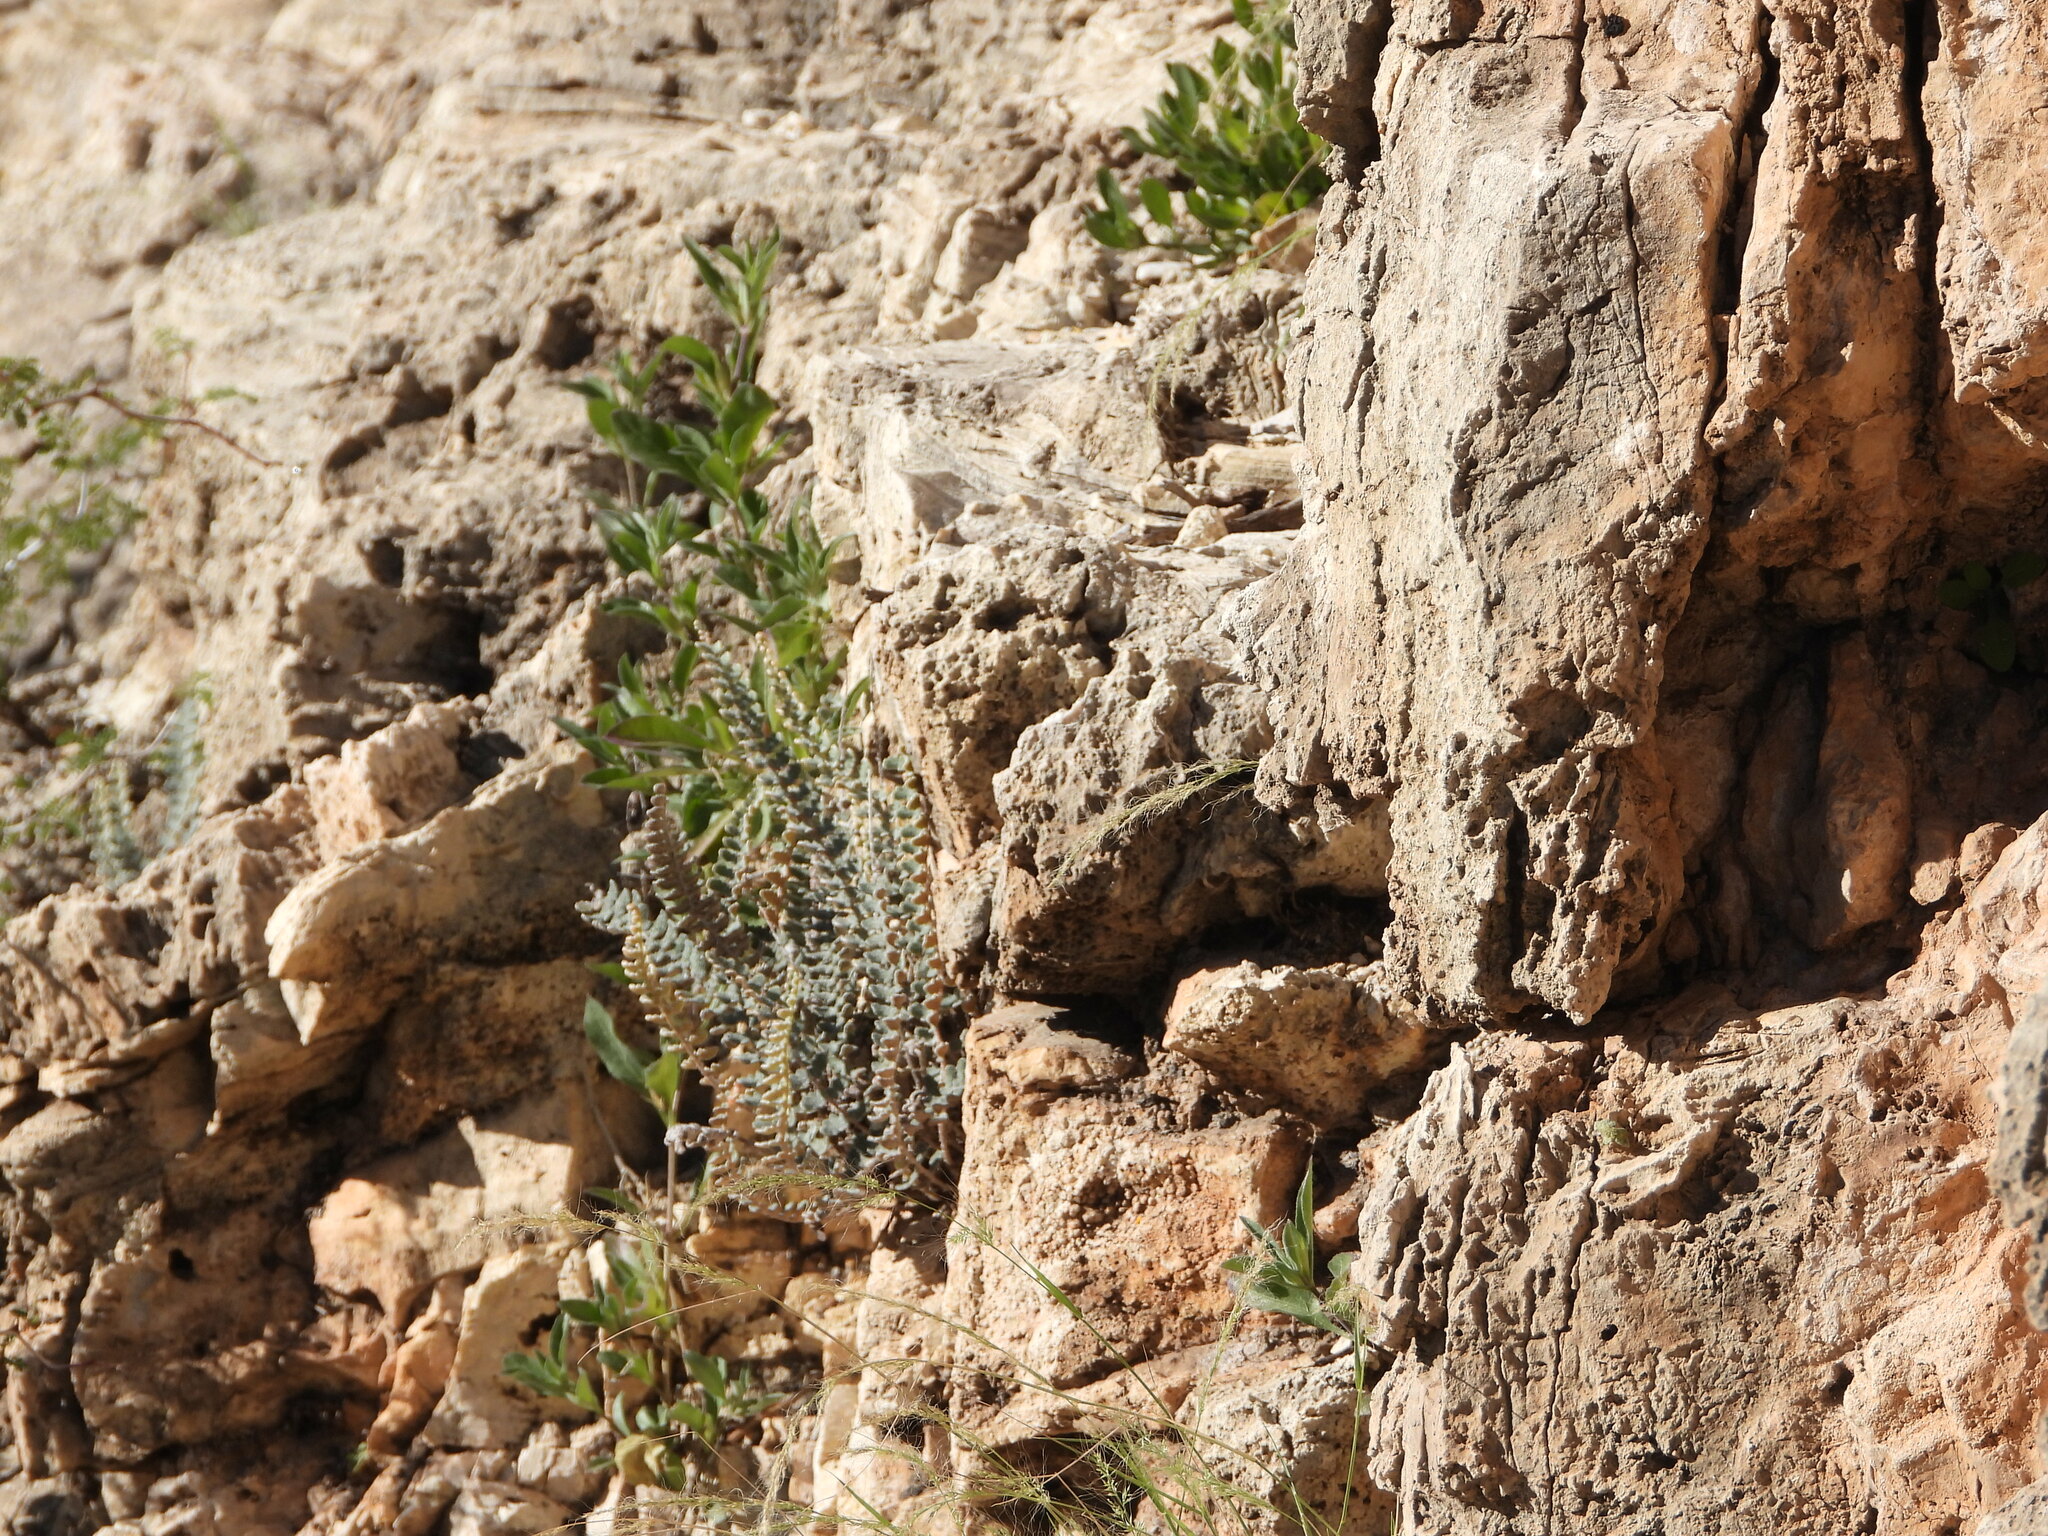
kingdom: Plantae
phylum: Tracheophyta
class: Polypodiopsida
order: Polypodiales
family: Pteridaceae
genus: Astrolepis
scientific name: Astrolepis integerrima
